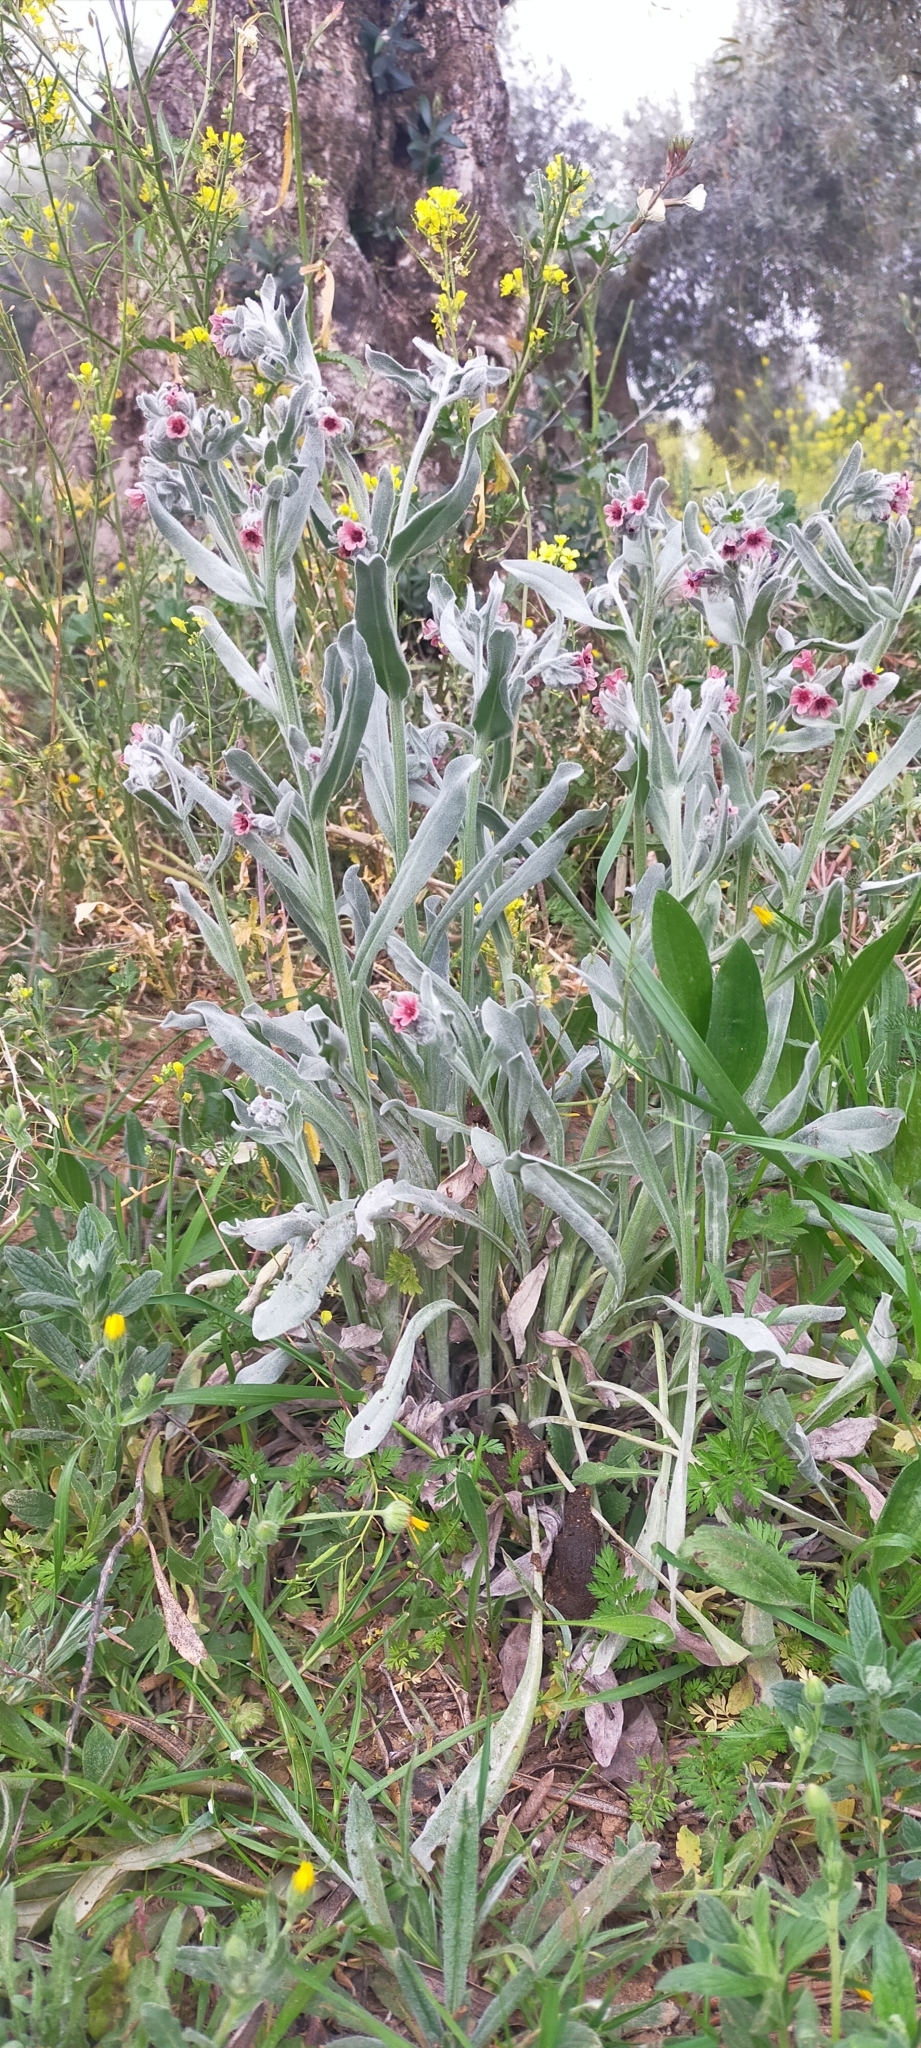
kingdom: Plantae
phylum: Tracheophyta
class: Magnoliopsida
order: Boraginales
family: Boraginaceae
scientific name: Boraginaceae
